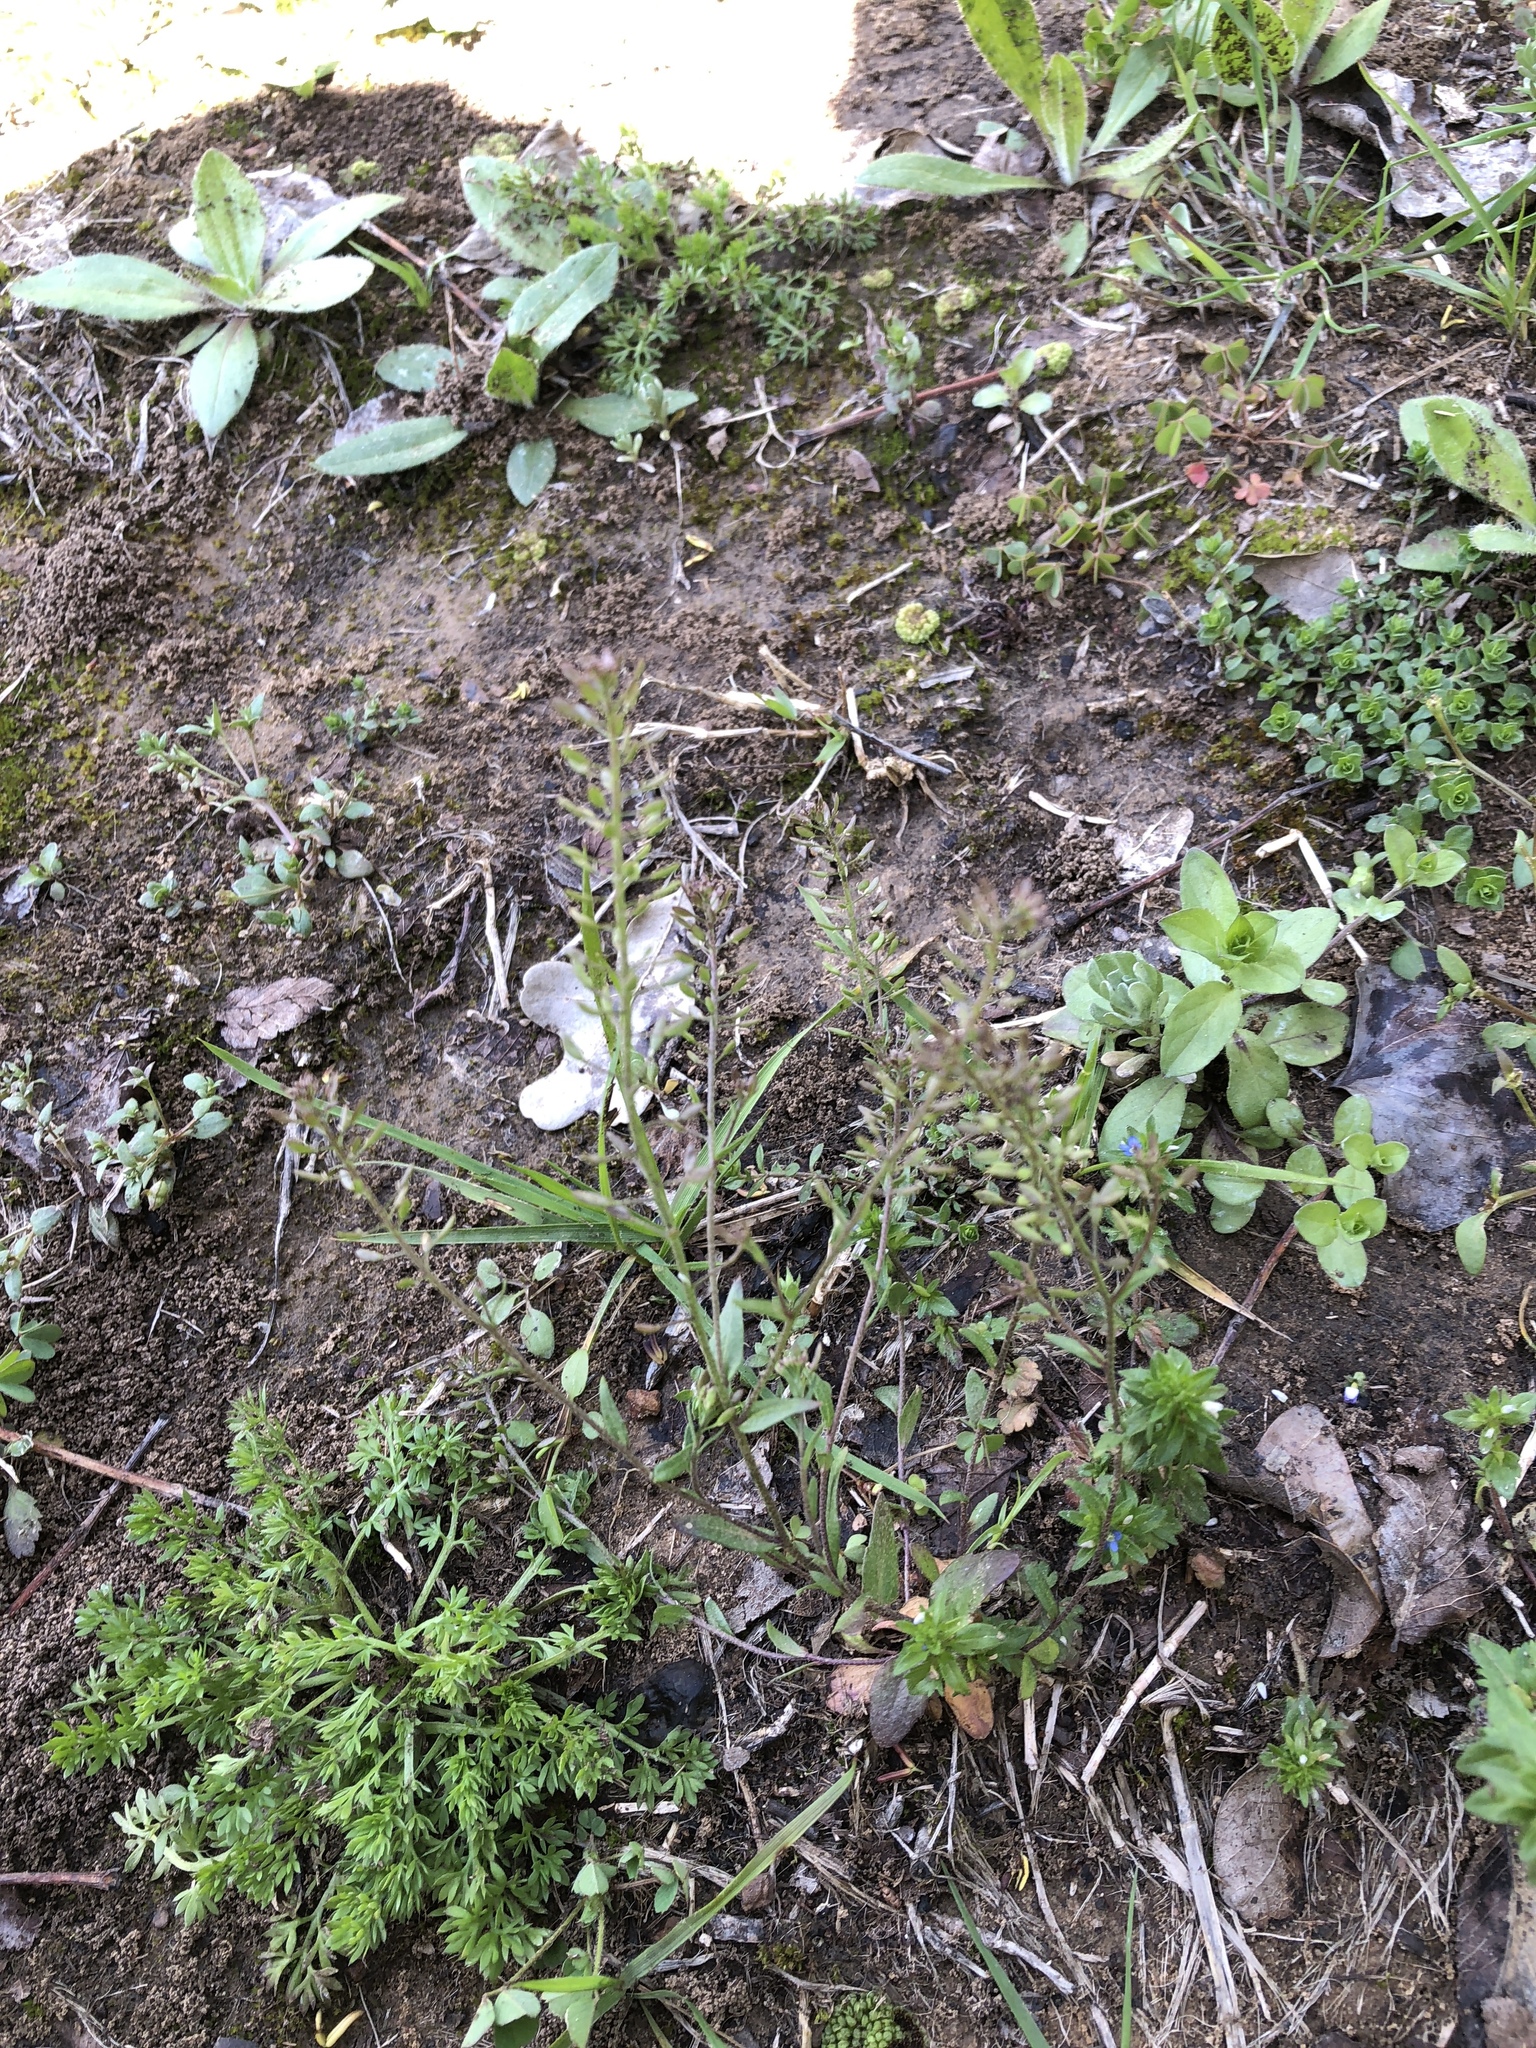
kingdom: Plantae
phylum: Tracheophyta
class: Magnoliopsida
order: Brassicales
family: Brassicaceae
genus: Abdra
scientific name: Abdra brachycarpa
